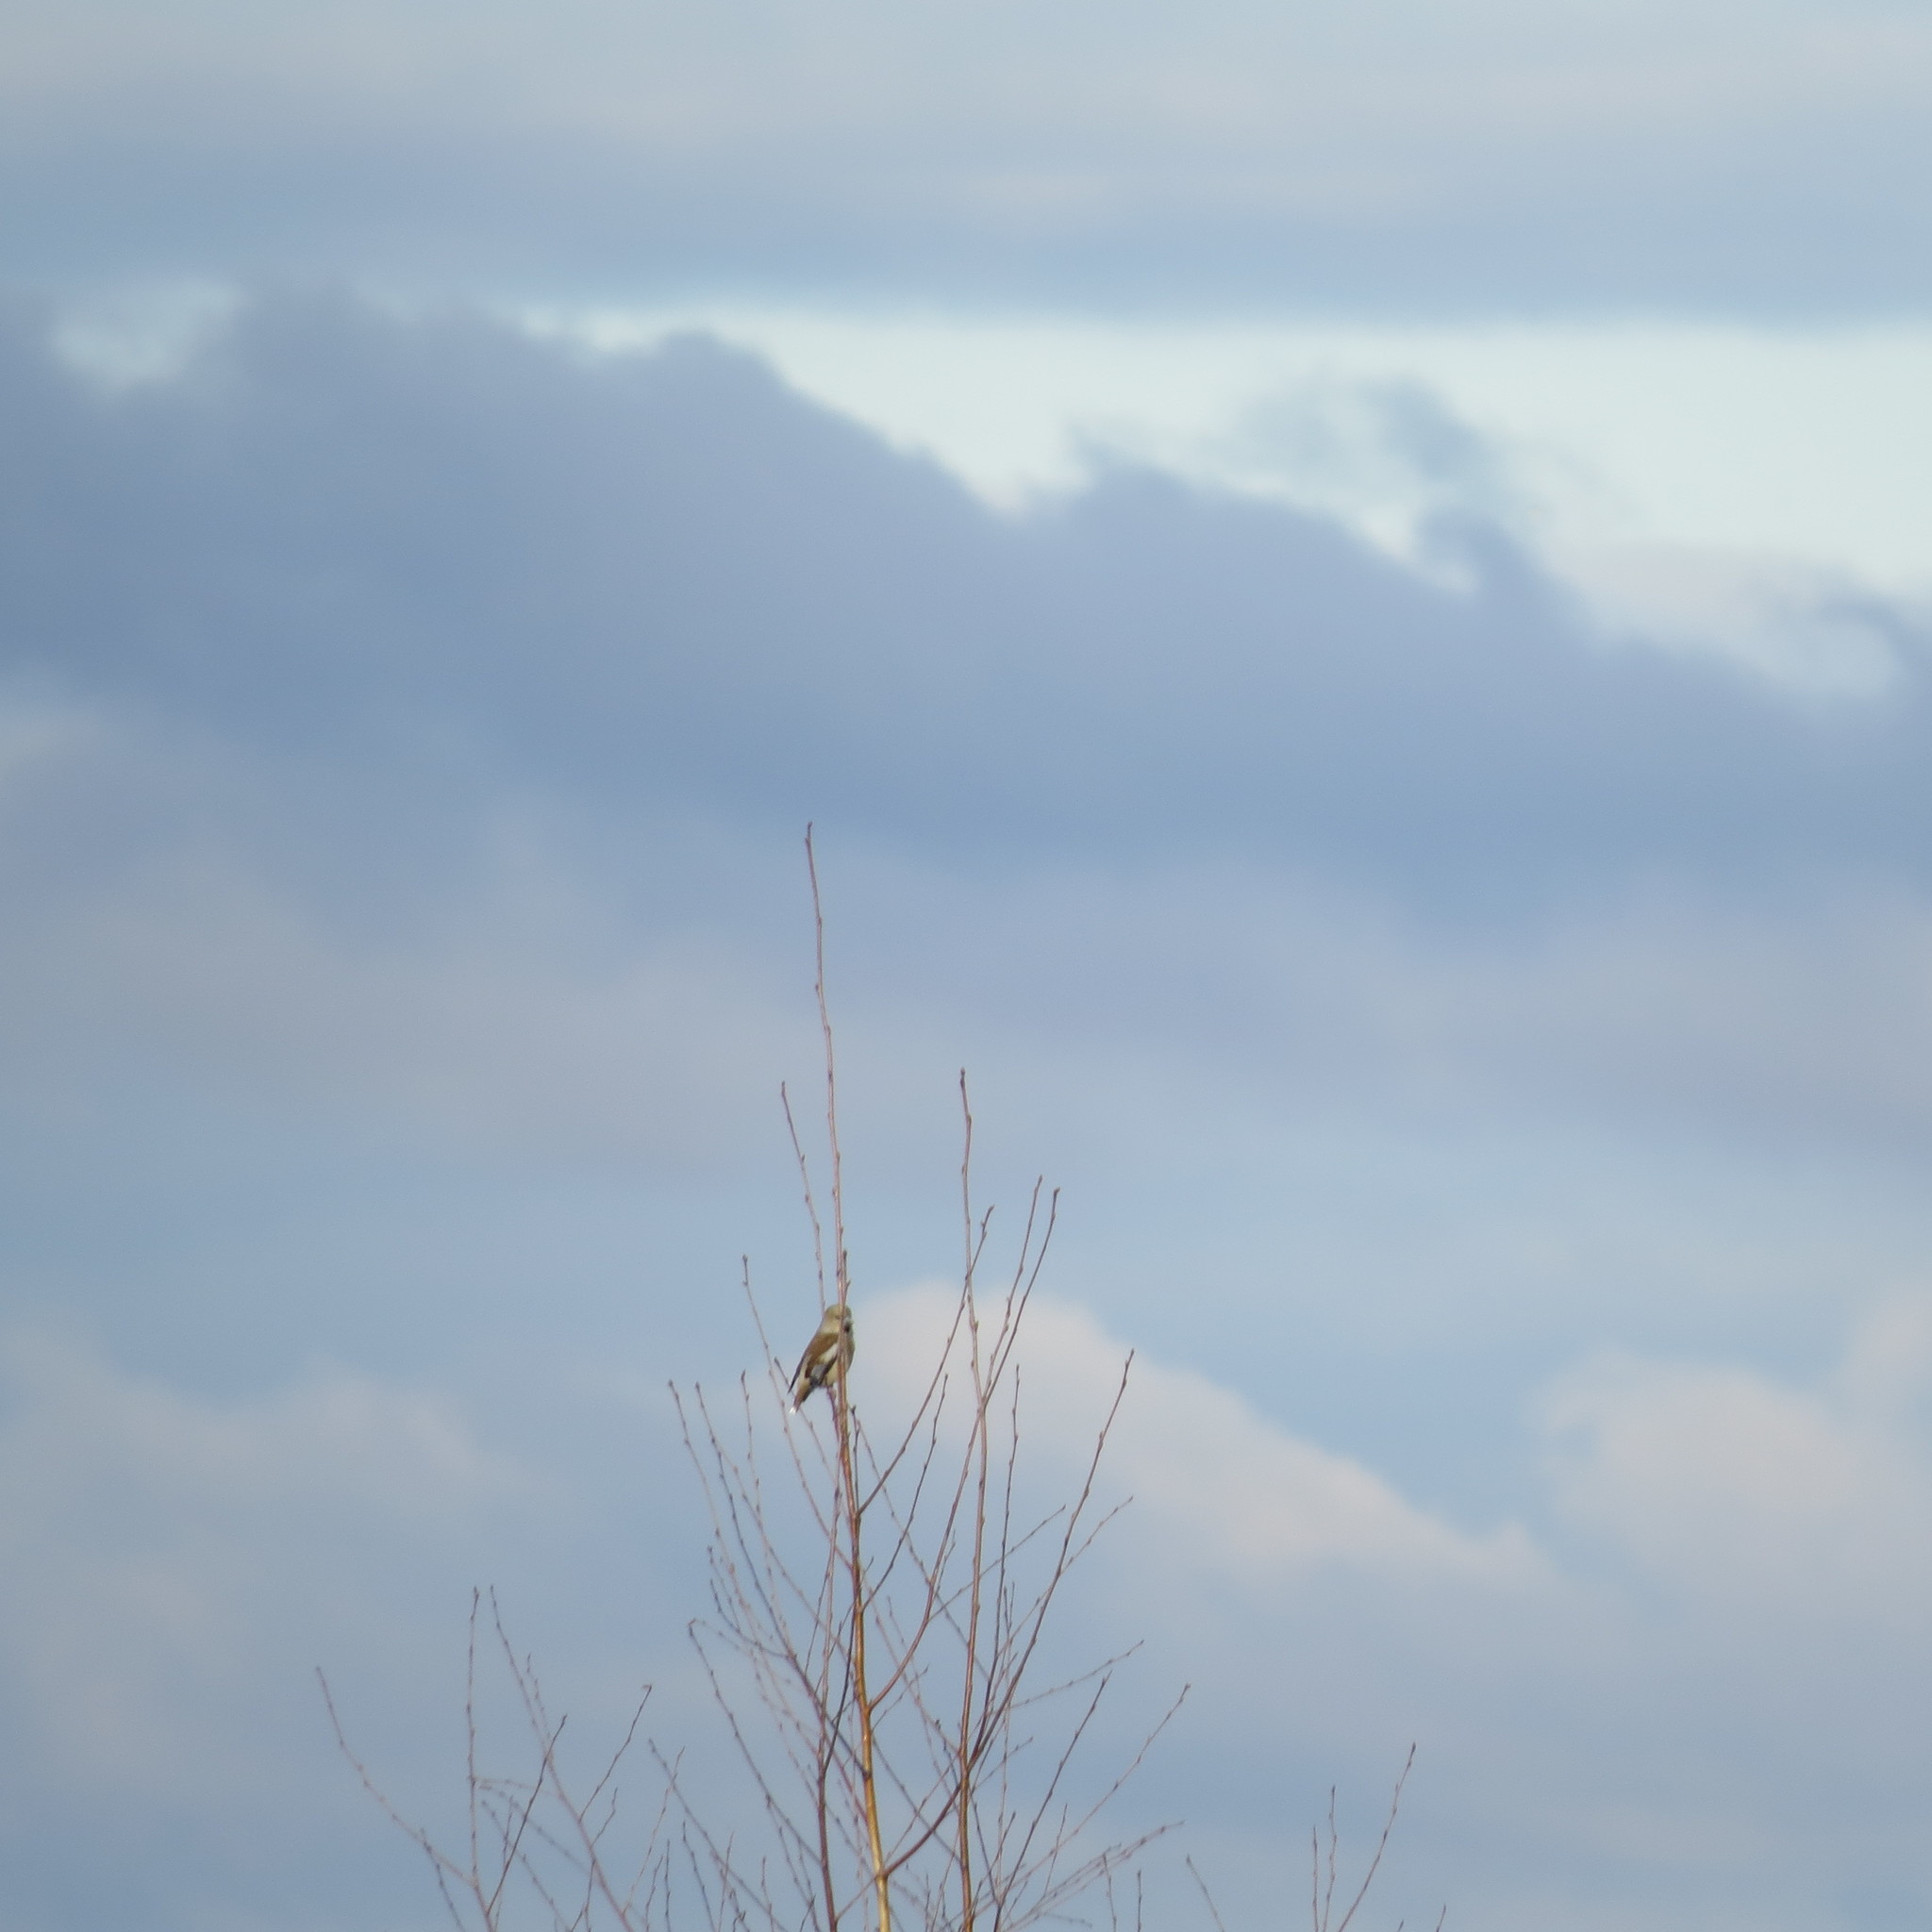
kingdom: Animalia
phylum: Chordata
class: Aves
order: Passeriformes
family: Fringillidae
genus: Coccothraustes
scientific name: Coccothraustes coccothraustes
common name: Hawfinch
